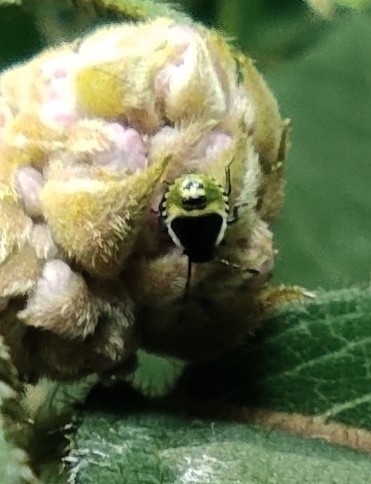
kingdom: Animalia
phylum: Arthropoda
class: Insecta
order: Hemiptera
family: Pentatomidae
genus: Palomena
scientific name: Palomena prasina
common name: Green shieldbug
